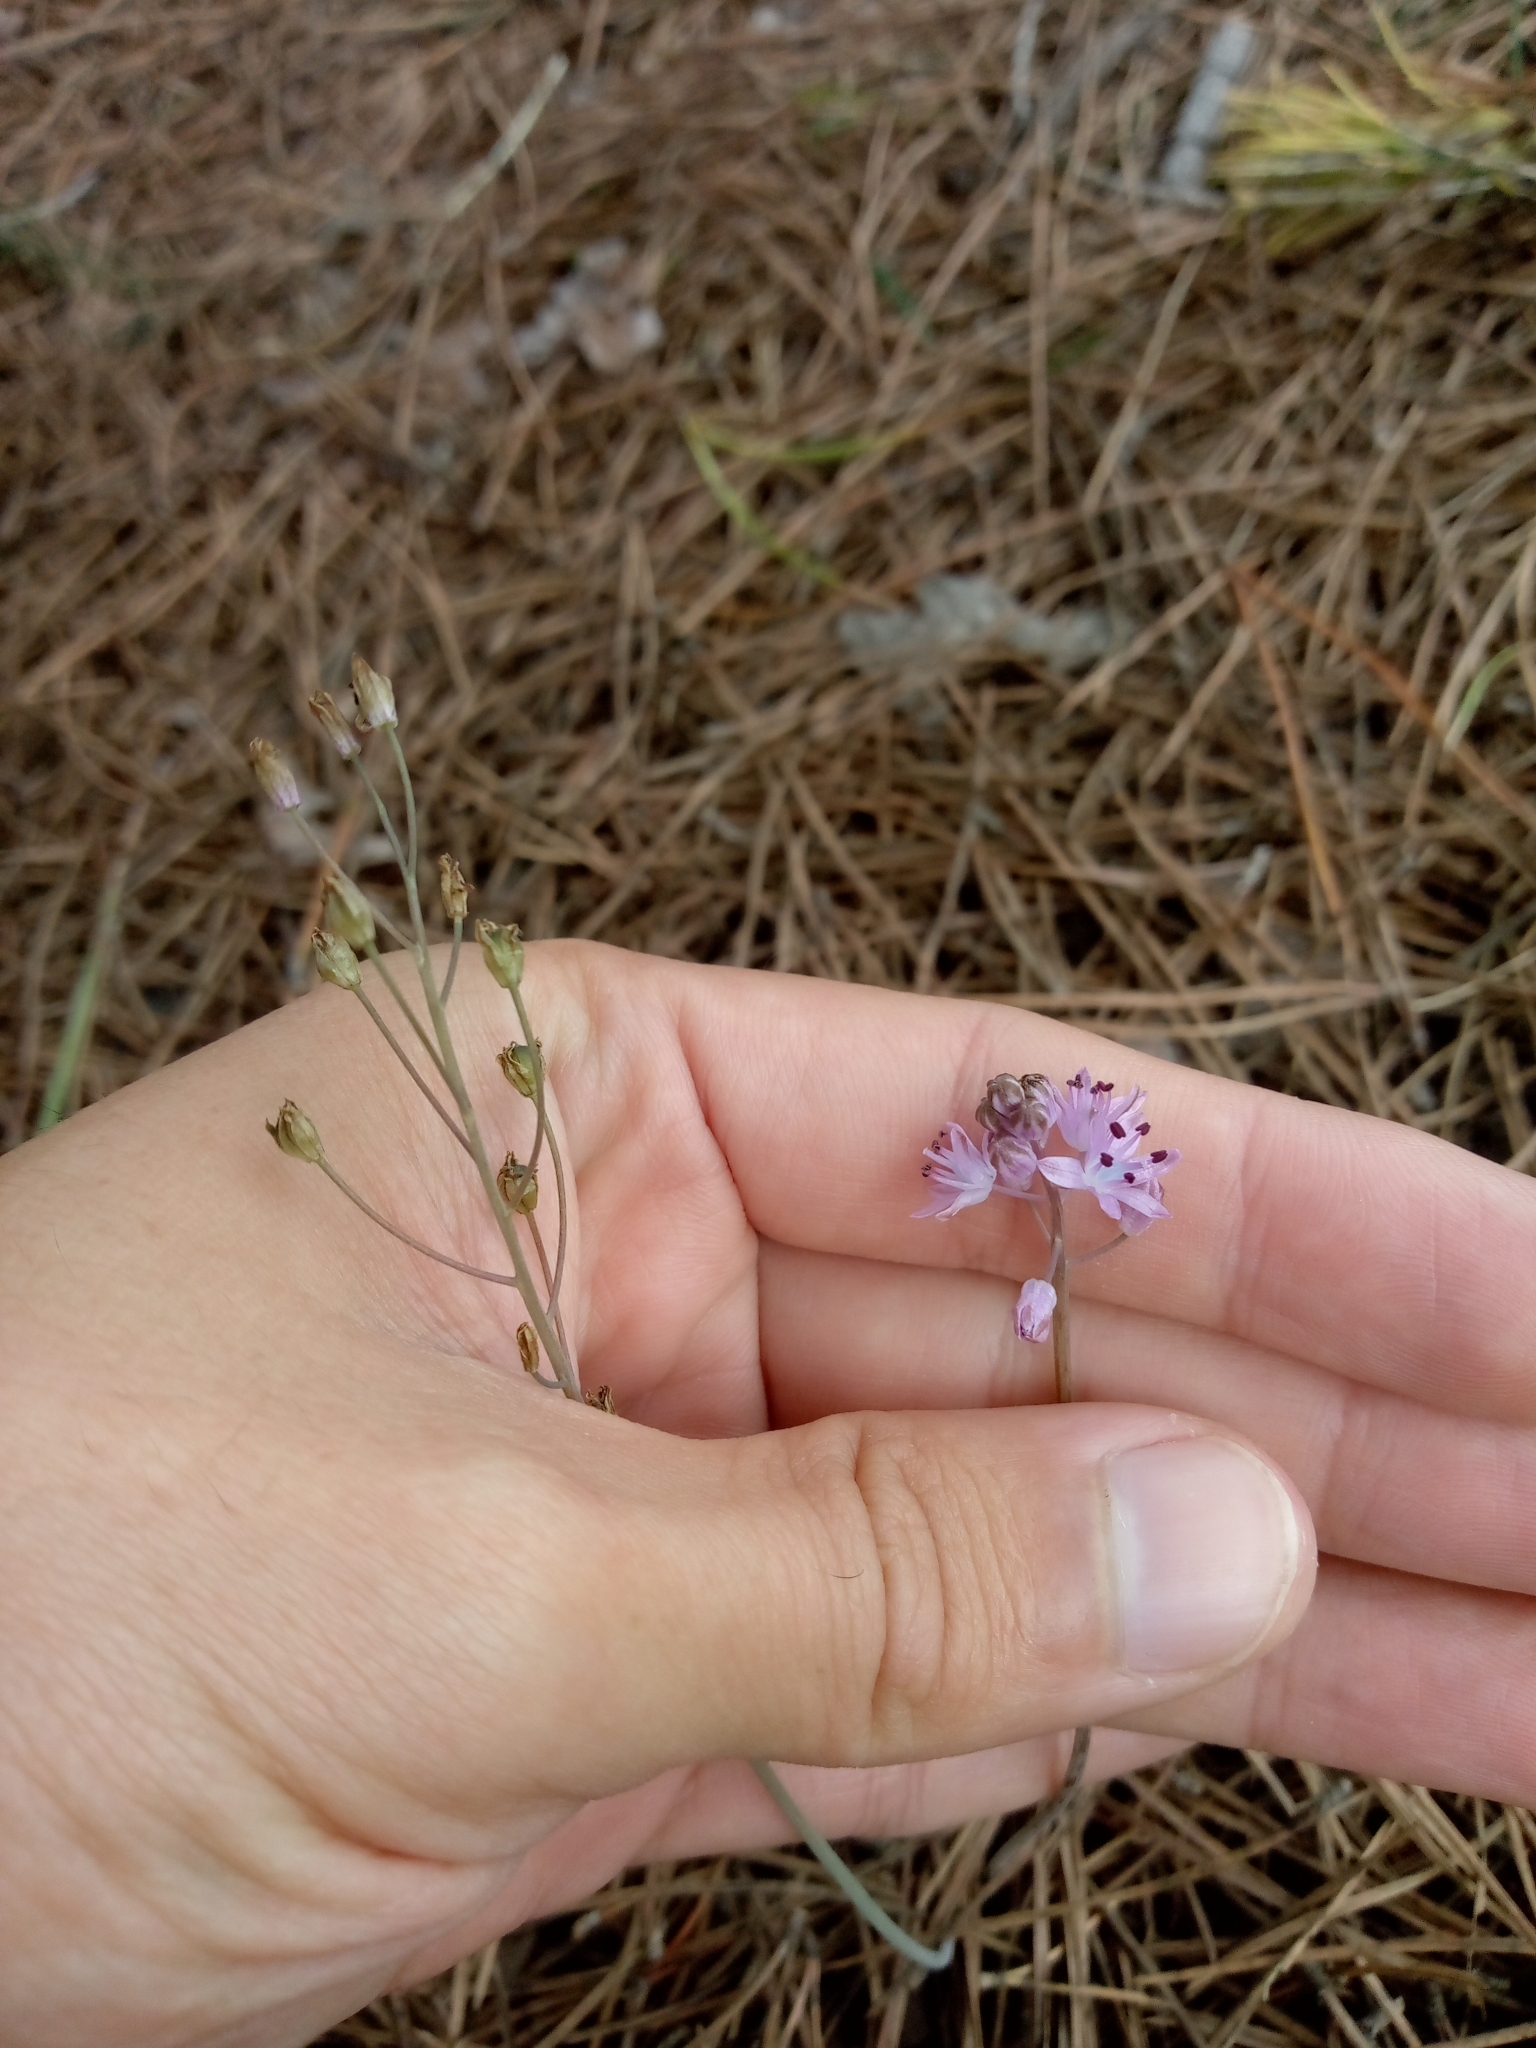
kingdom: Plantae
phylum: Tracheophyta
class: Liliopsida
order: Asparagales
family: Asparagaceae
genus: Prospero
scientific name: Prospero autumnale
